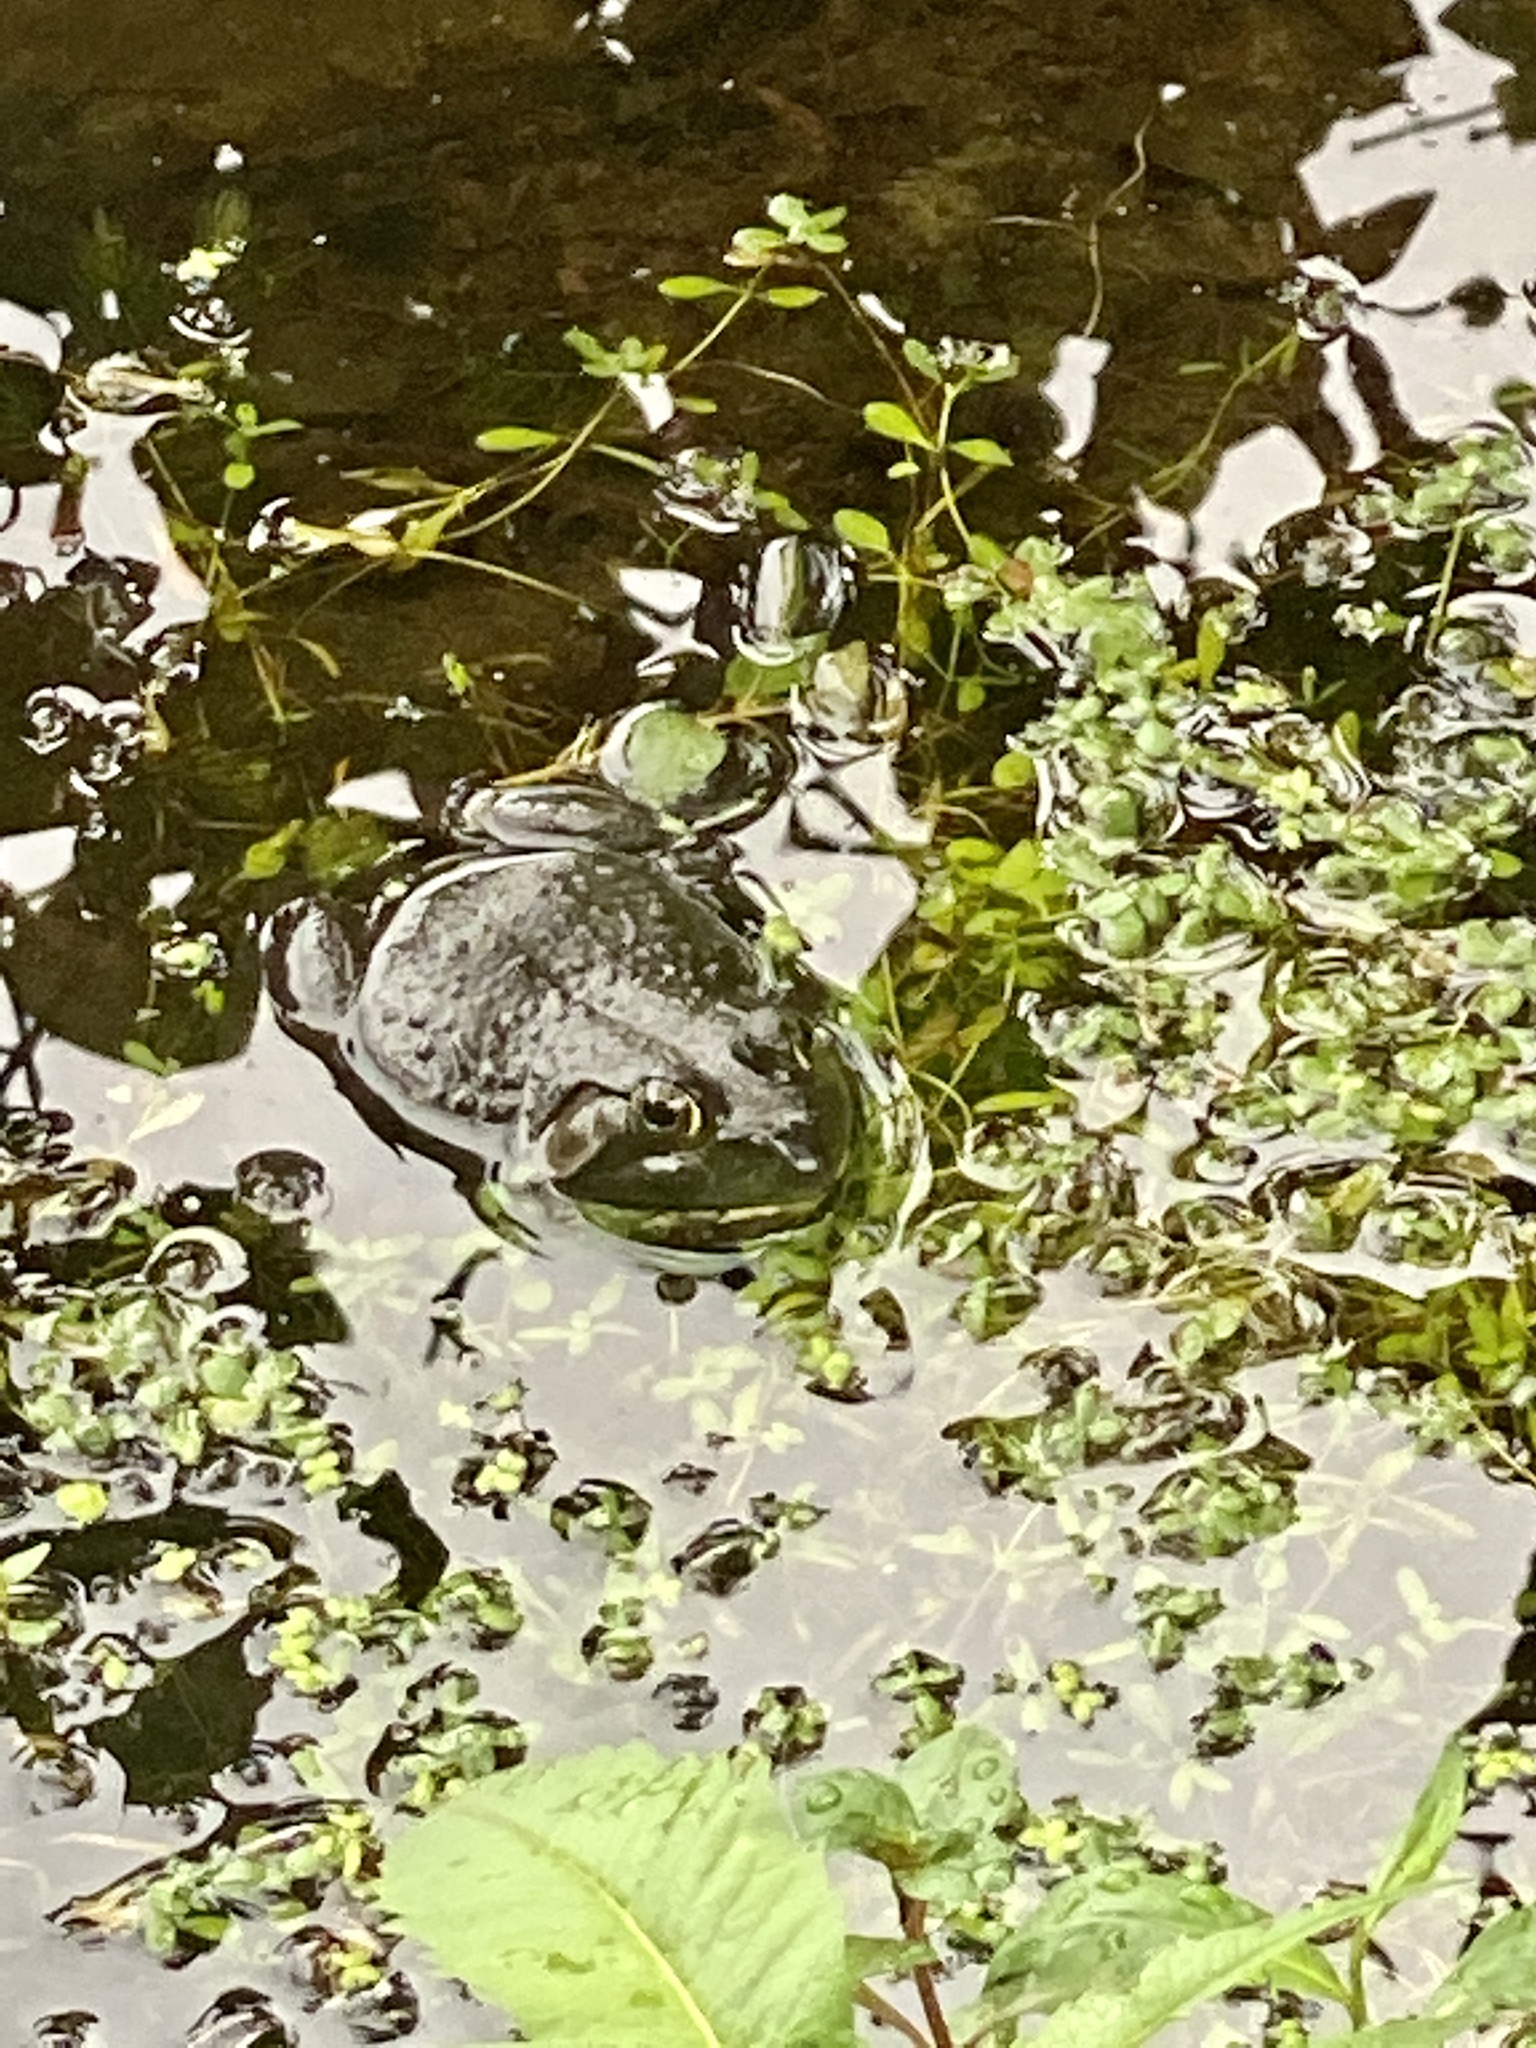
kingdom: Animalia
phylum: Chordata
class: Amphibia
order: Anura
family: Ranidae
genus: Lithobates
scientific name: Lithobates catesbeianus
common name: American bullfrog
